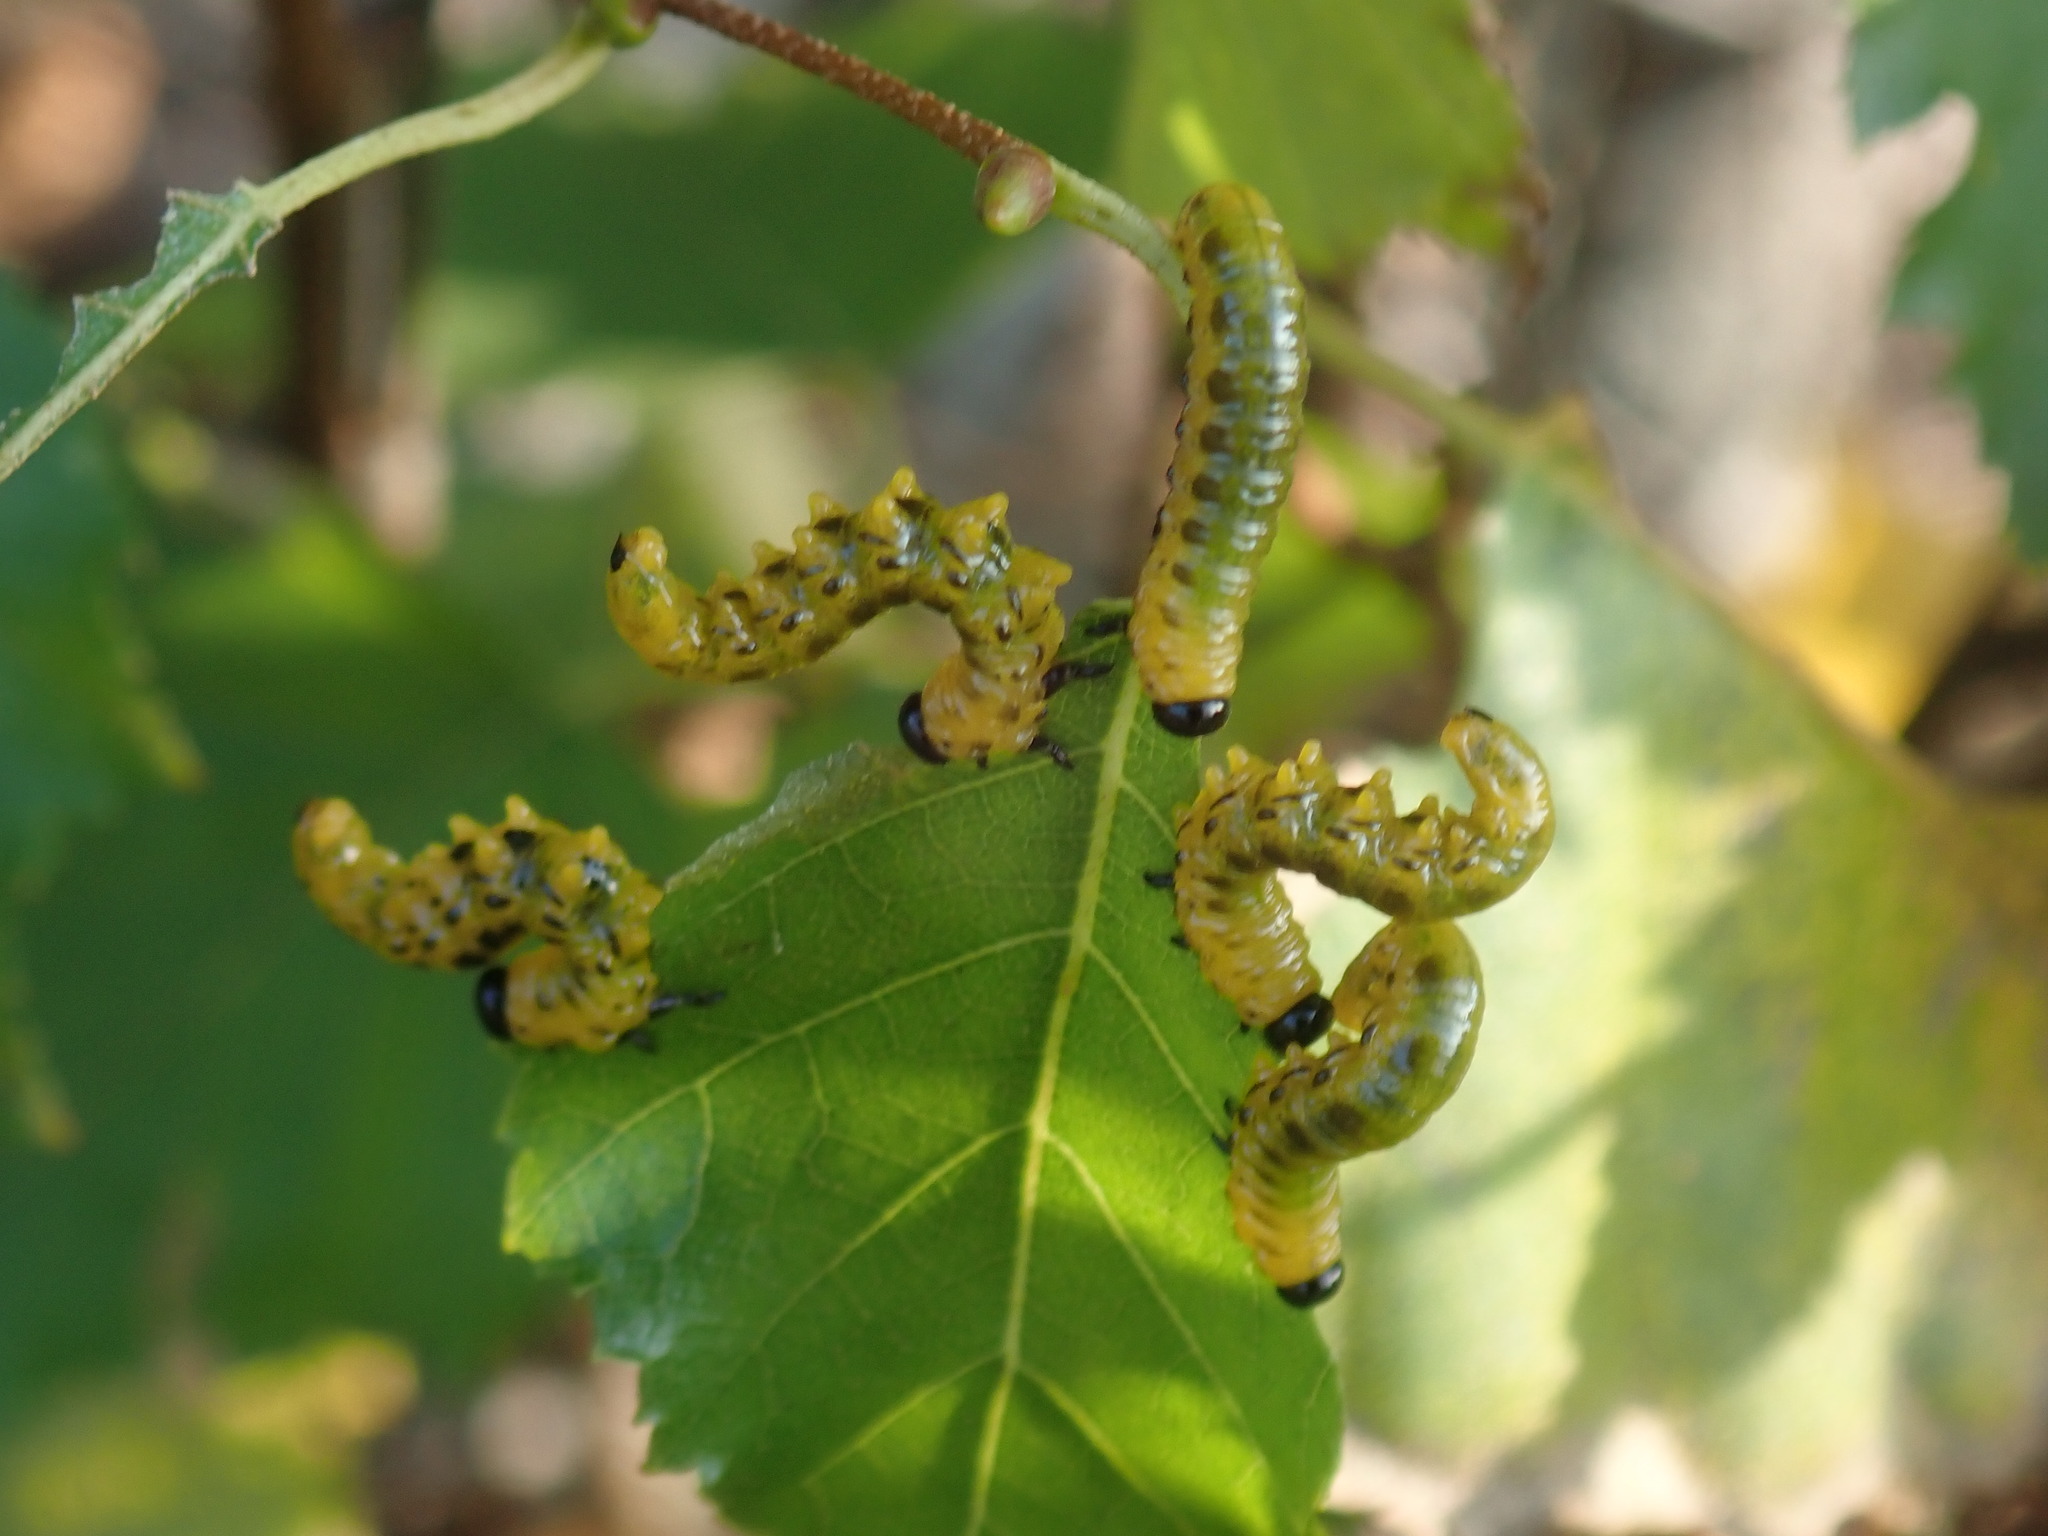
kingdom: Animalia
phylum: Arthropoda
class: Insecta
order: Hymenoptera
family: Tenthredinidae
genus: Nematus
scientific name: Nematus
